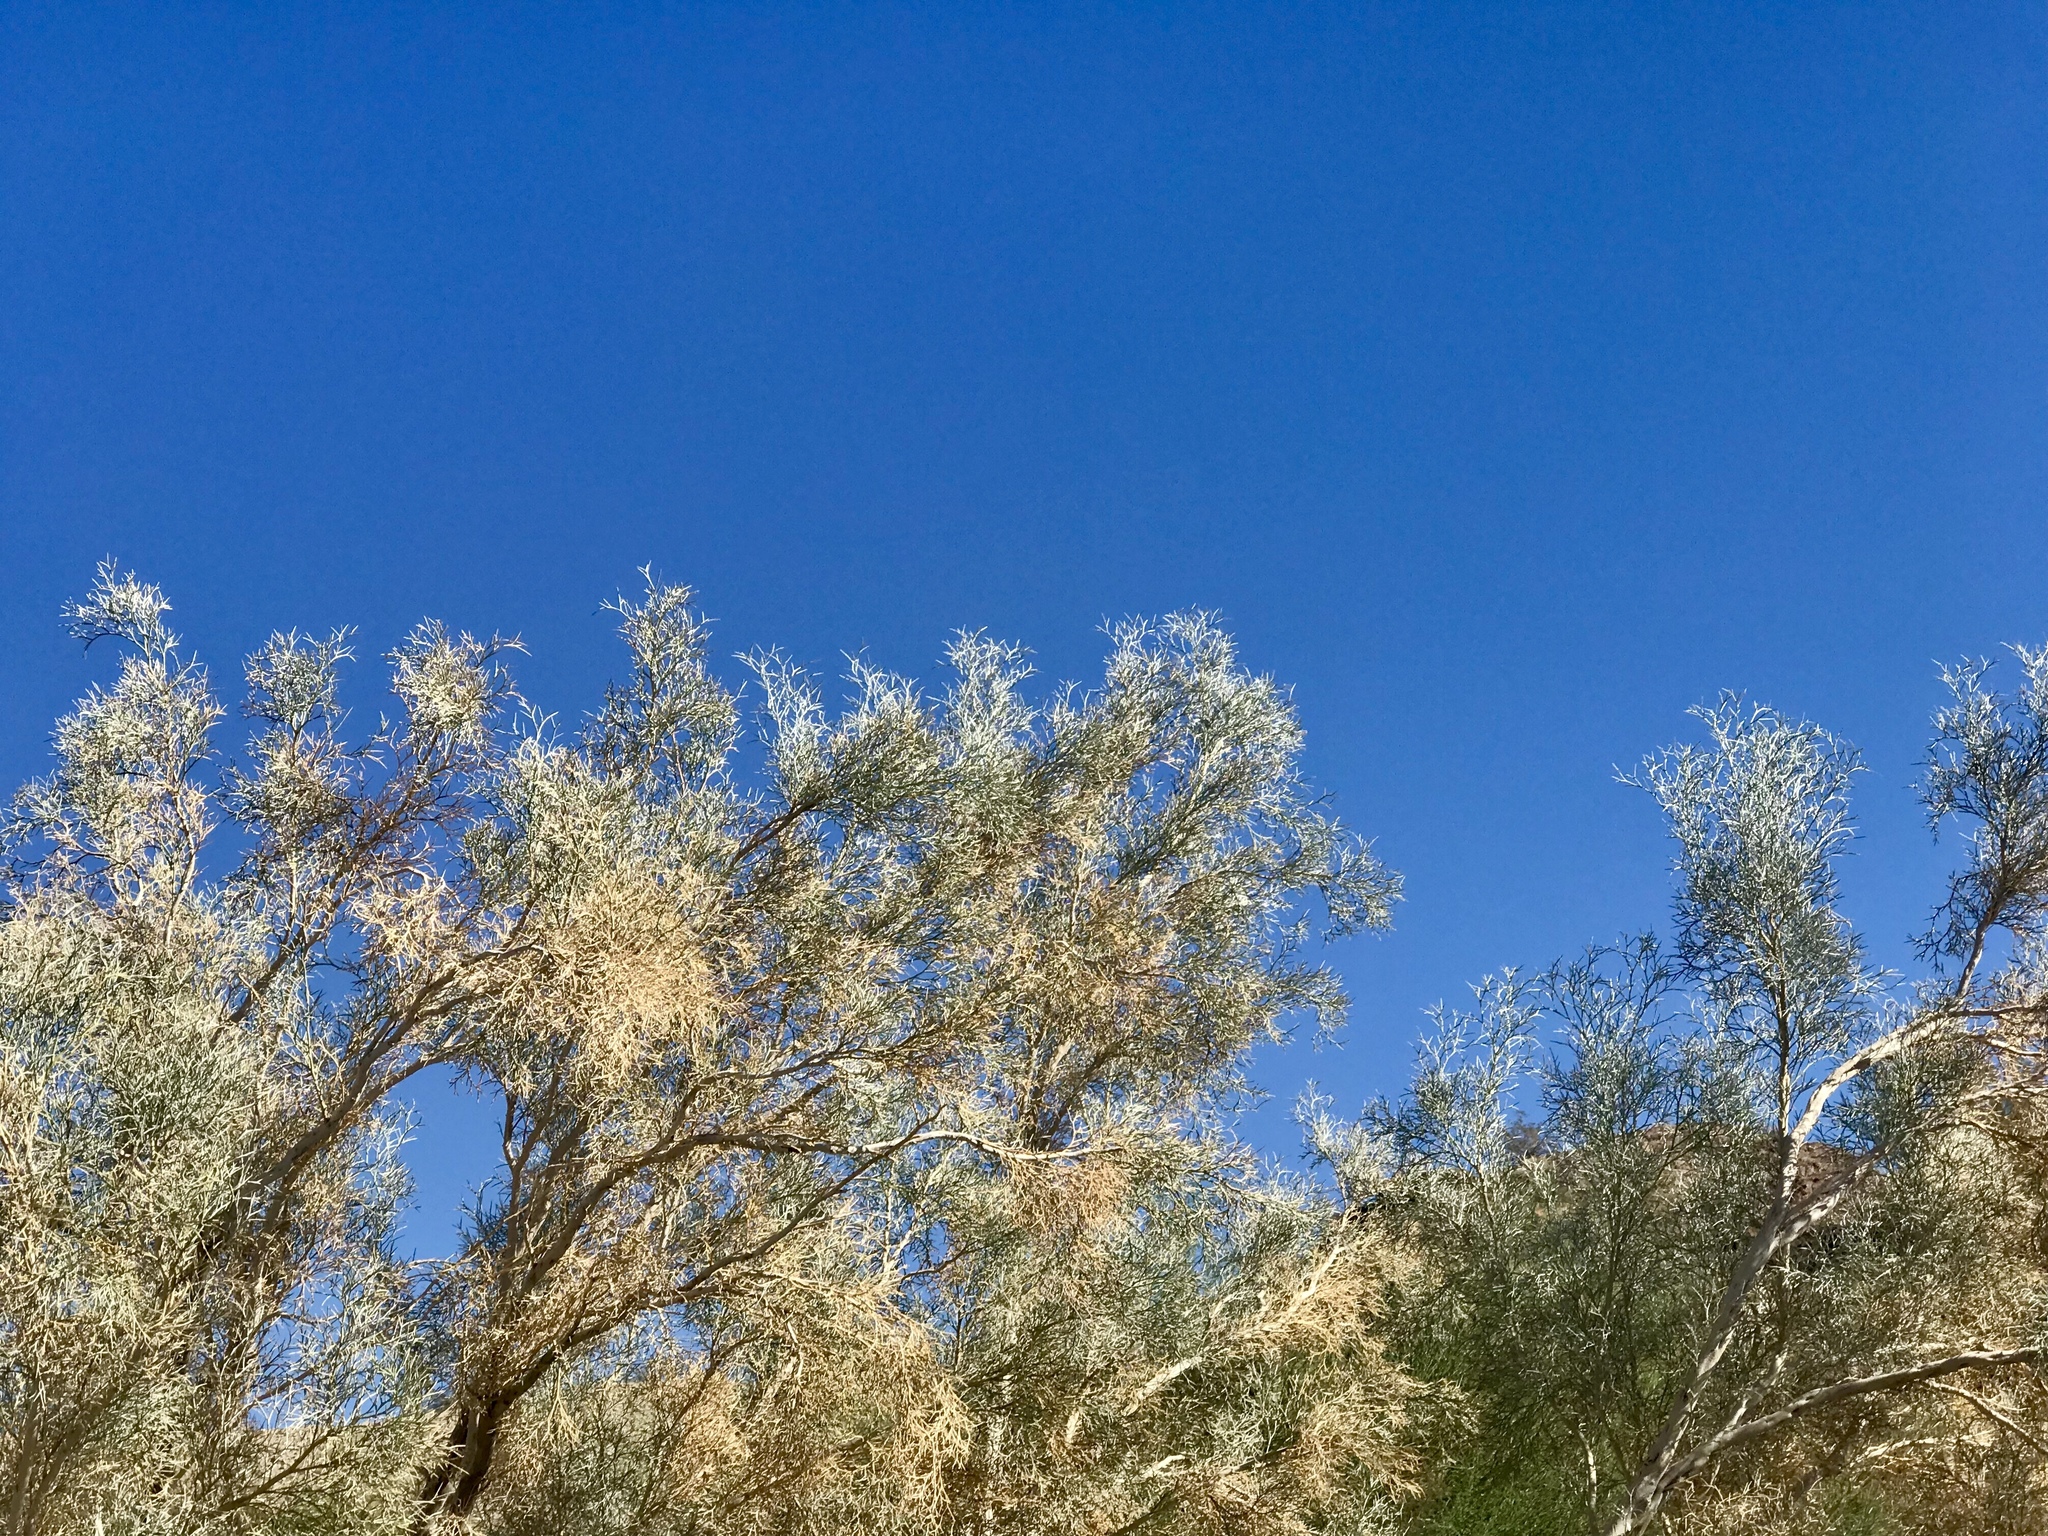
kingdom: Plantae
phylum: Tracheophyta
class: Magnoliopsida
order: Fabales
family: Fabaceae
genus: Psorothamnus
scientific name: Psorothamnus spinosus
